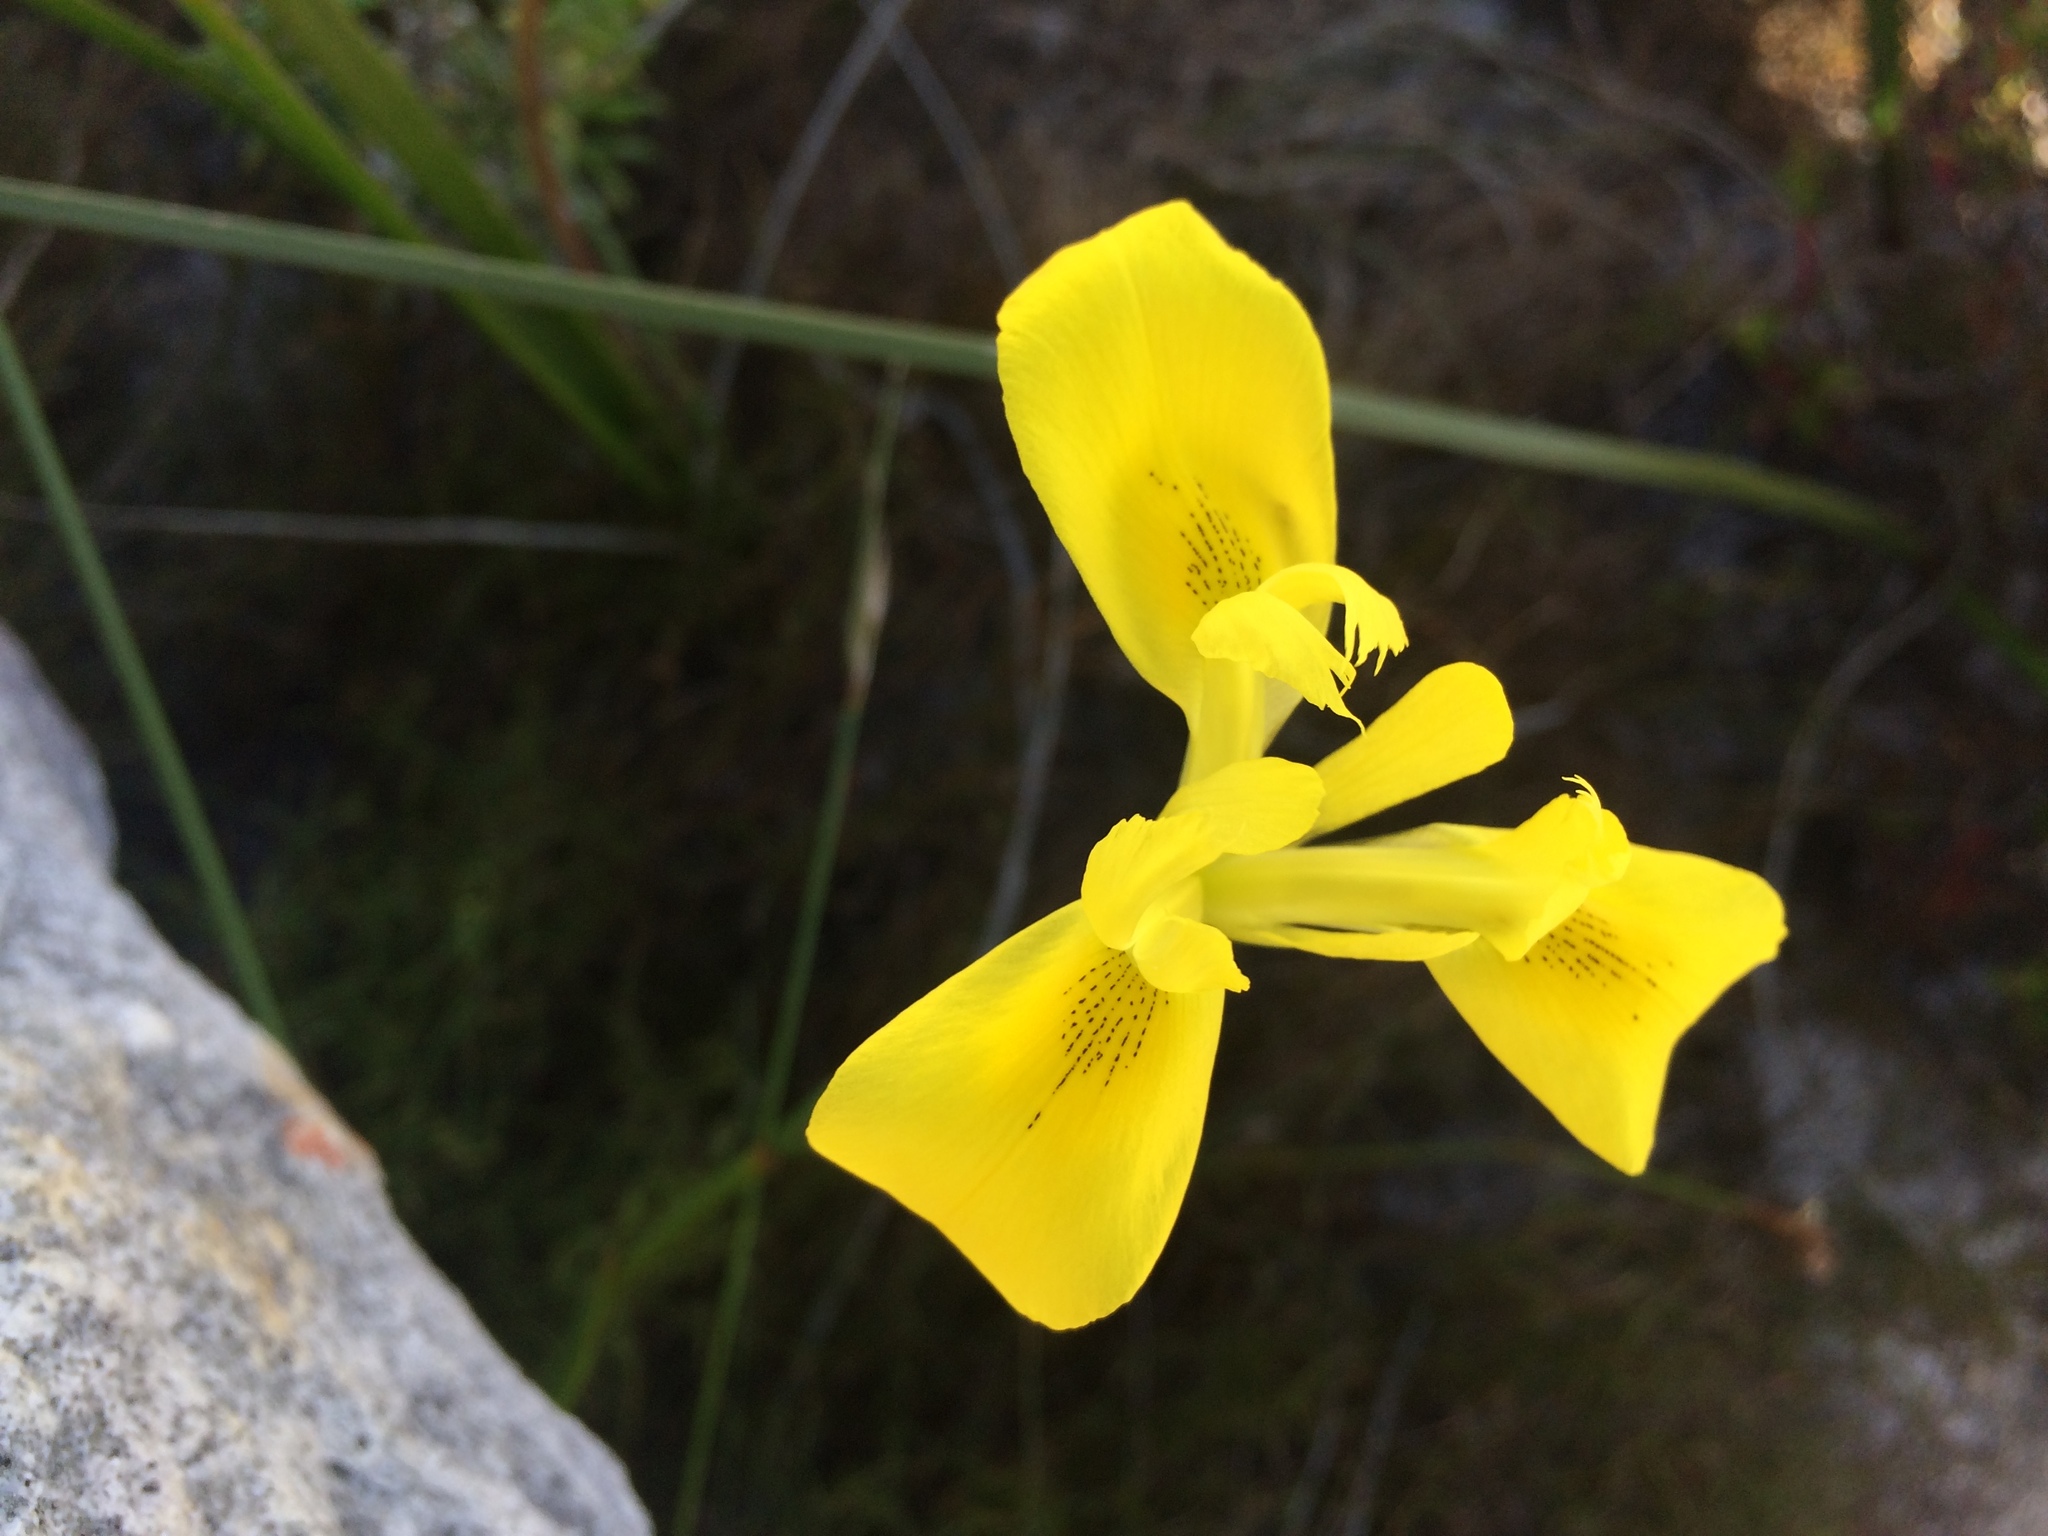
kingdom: Plantae
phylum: Tracheophyta
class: Liliopsida
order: Asparagales
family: Iridaceae
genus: Moraea
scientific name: Moraea neglecta
